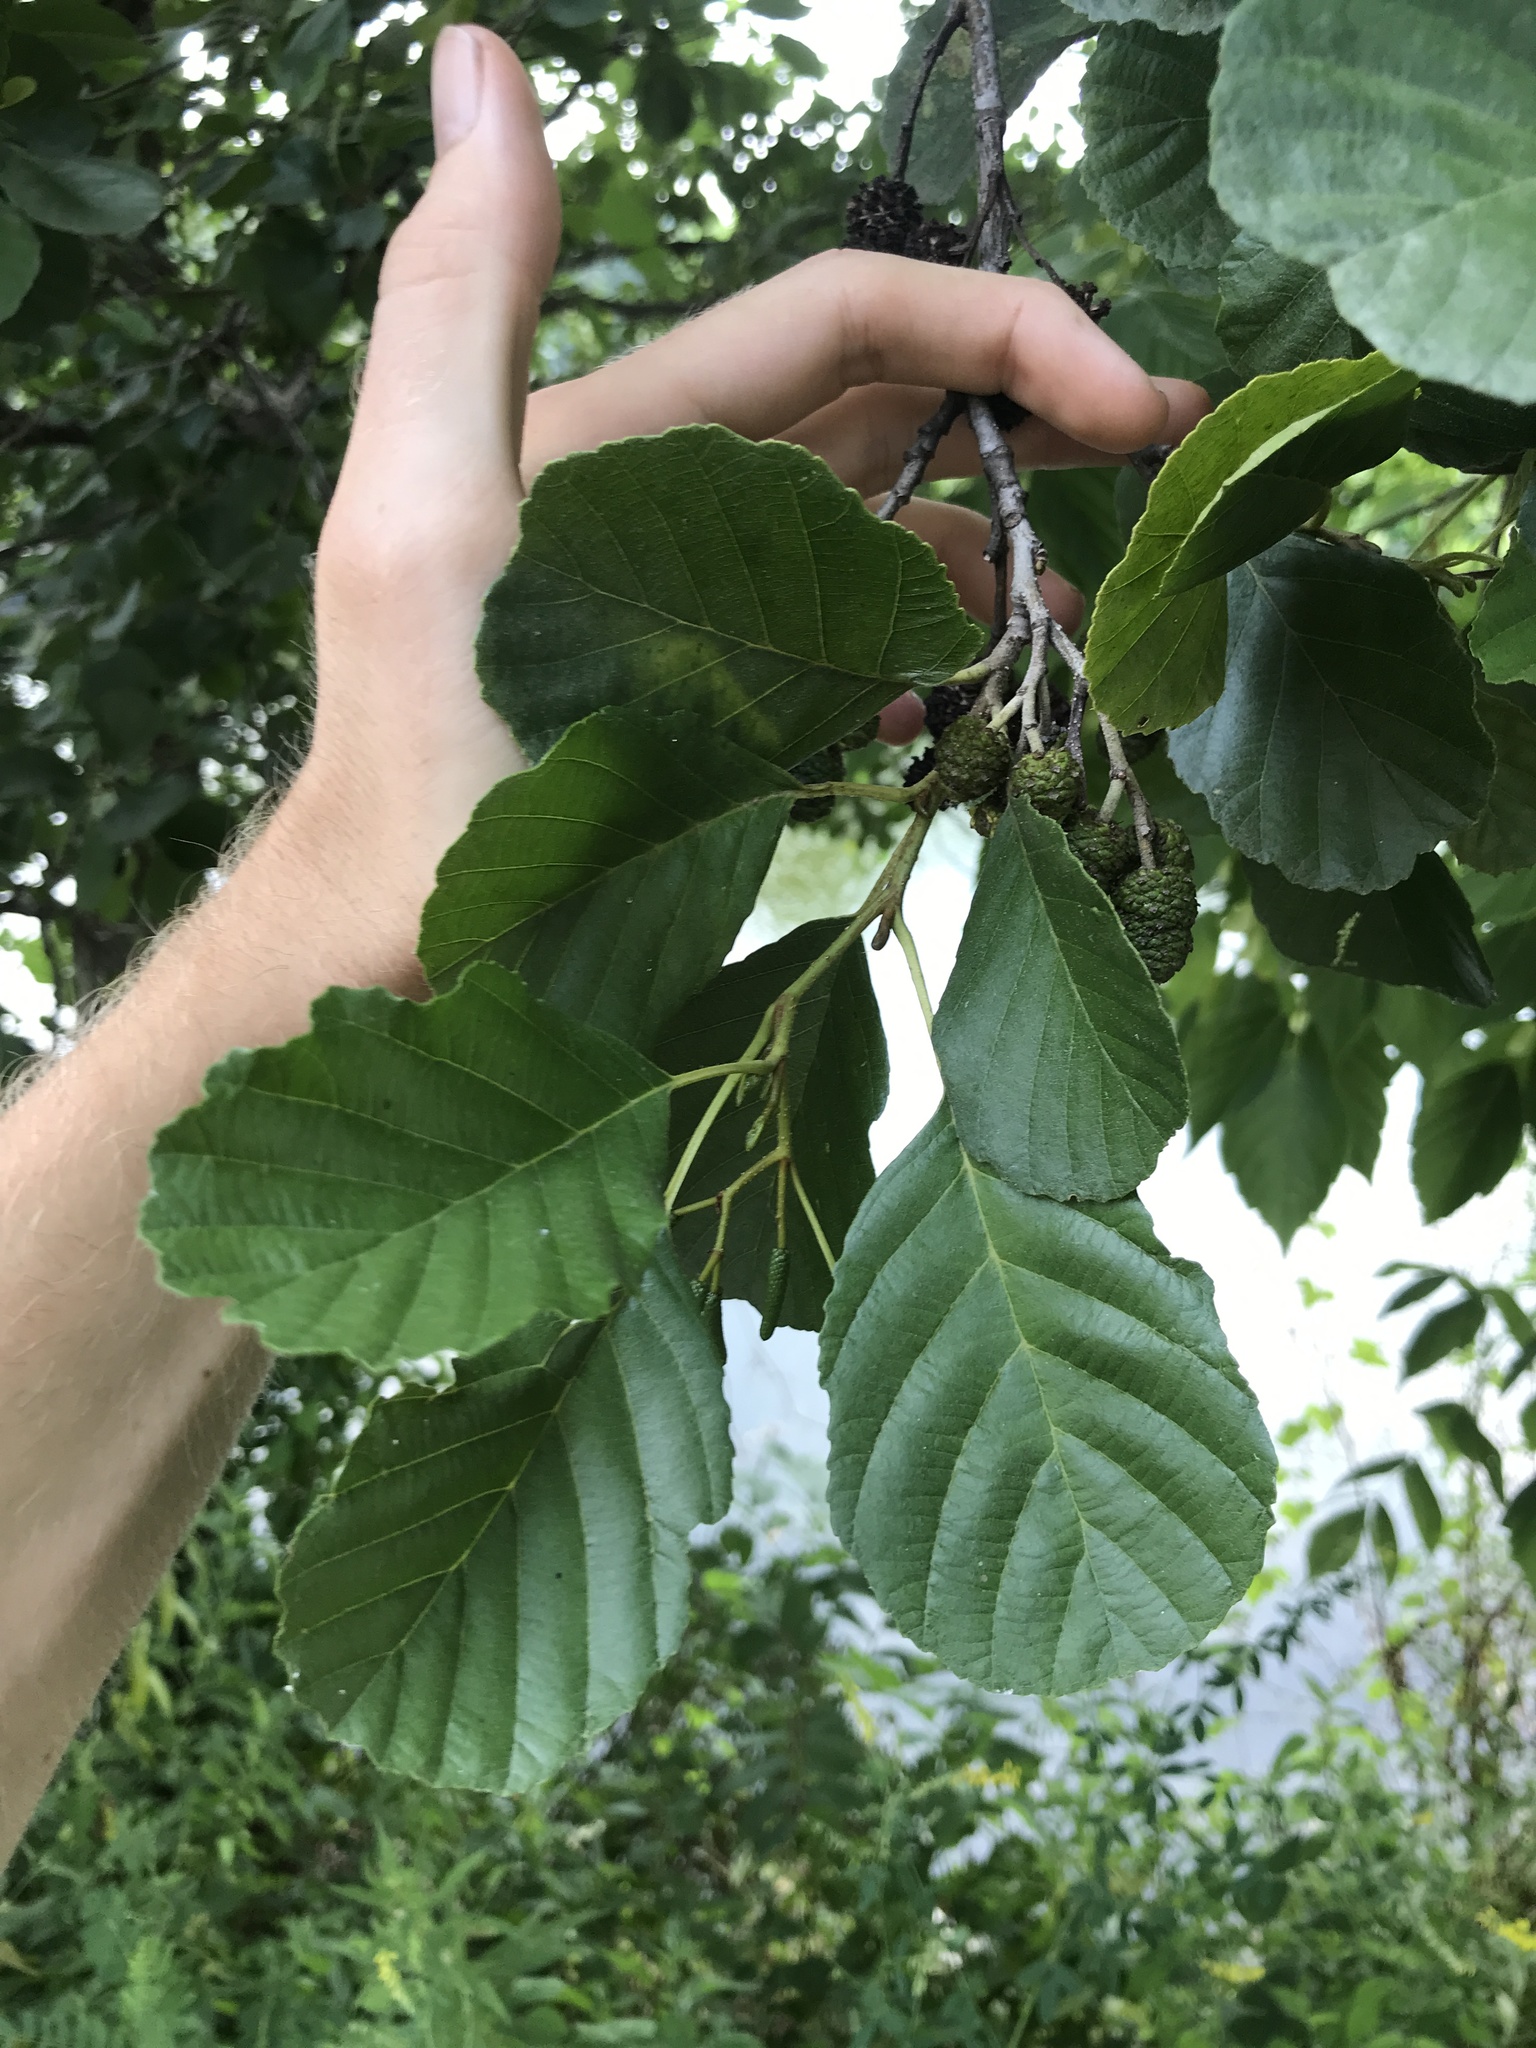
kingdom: Plantae
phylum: Tracheophyta
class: Magnoliopsida
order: Fagales
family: Betulaceae
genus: Alnus
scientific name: Alnus glutinosa
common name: Black alder
